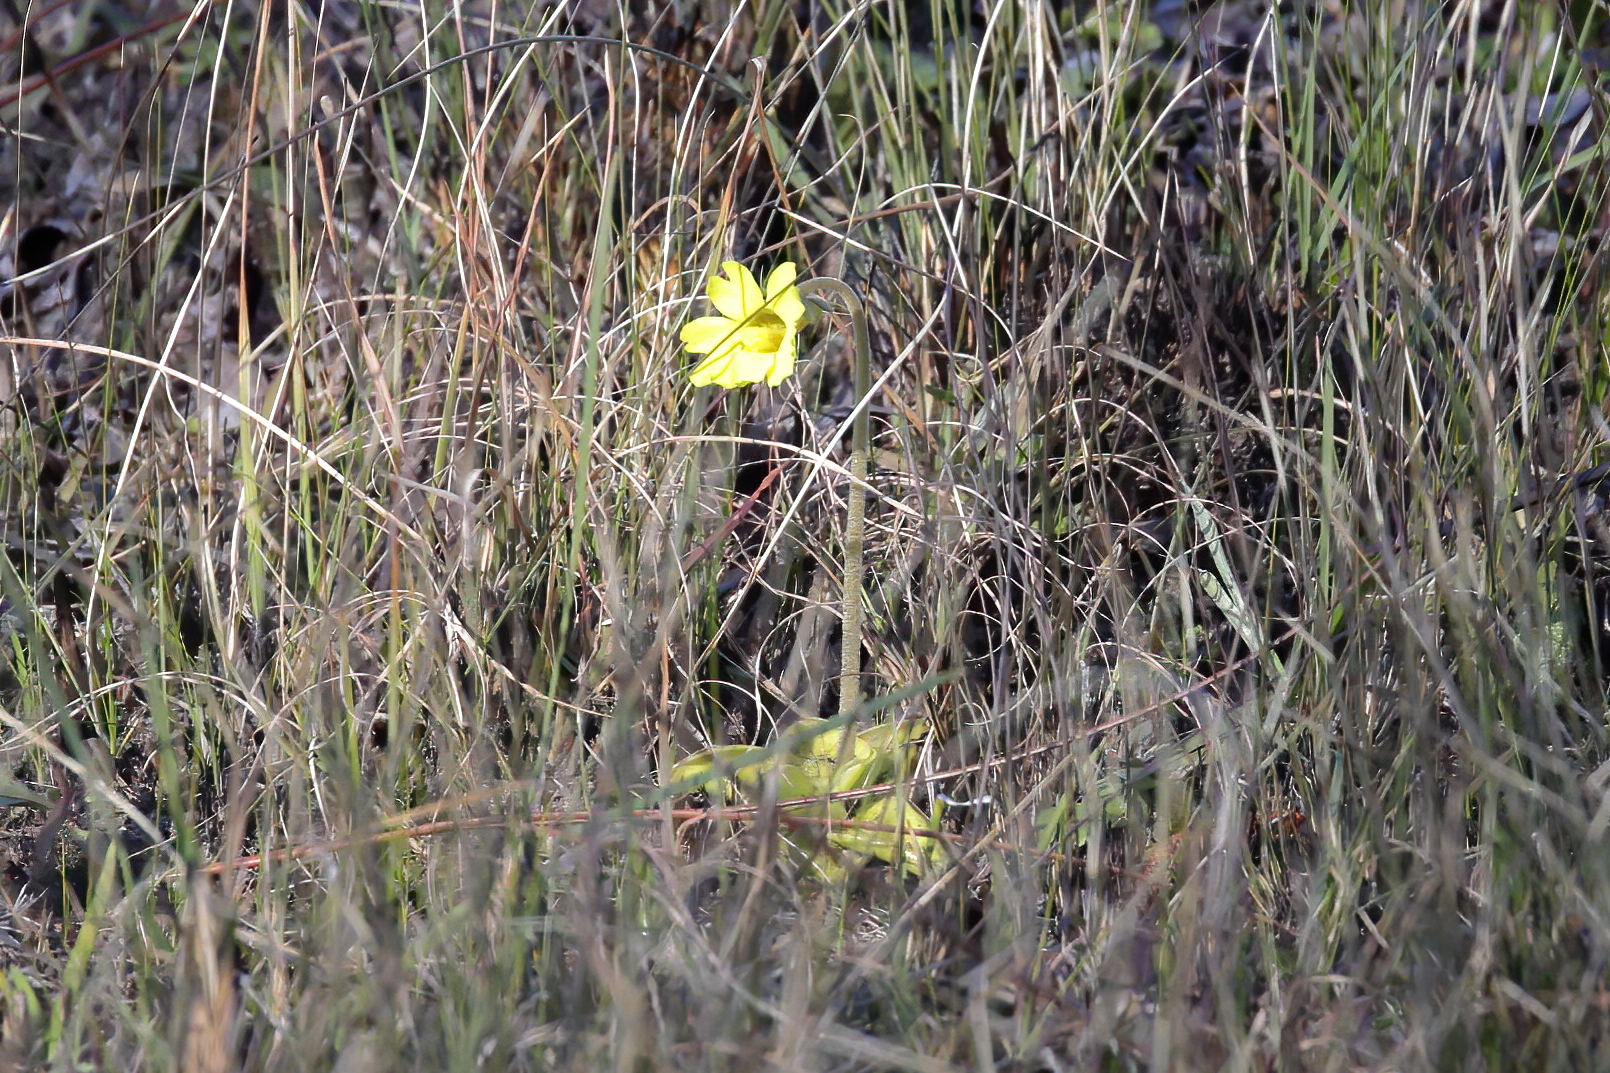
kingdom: Plantae
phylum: Tracheophyta
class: Magnoliopsida
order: Lamiales
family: Lentibulariaceae
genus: Pinguicula
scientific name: Pinguicula lutea
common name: Yellow butterwort
